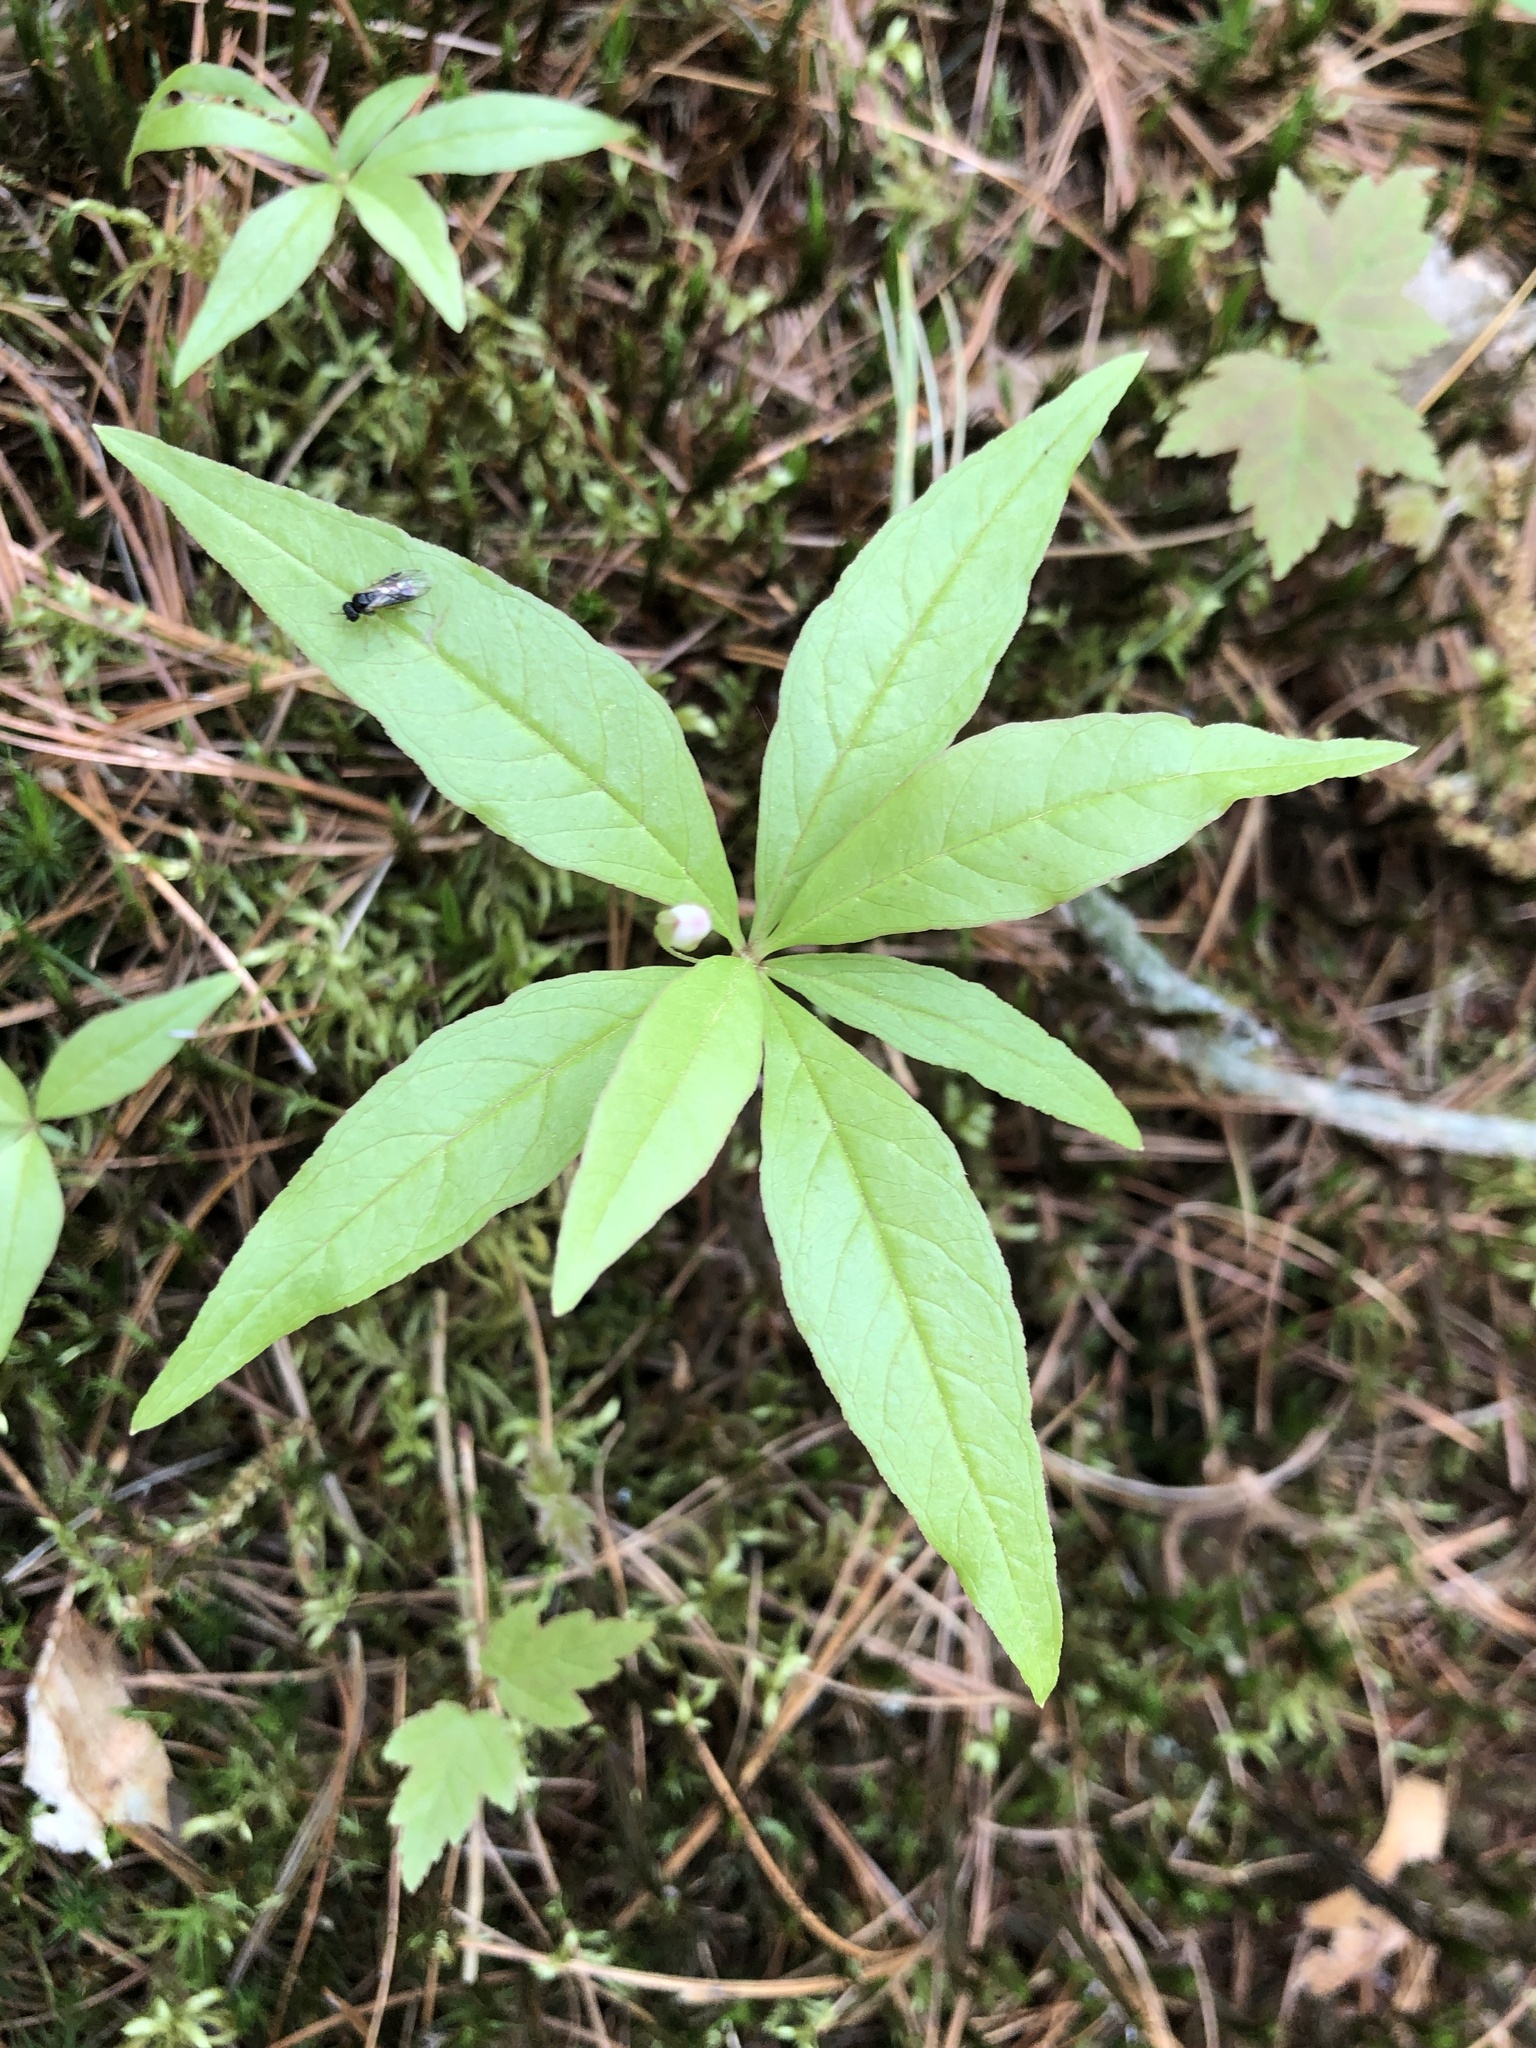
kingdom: Plantae
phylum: Tracheophyta
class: Magnoliopsida
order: Ericales
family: Primulaceae
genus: Lysimachia
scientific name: Lysimachia borealis
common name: American starflower
